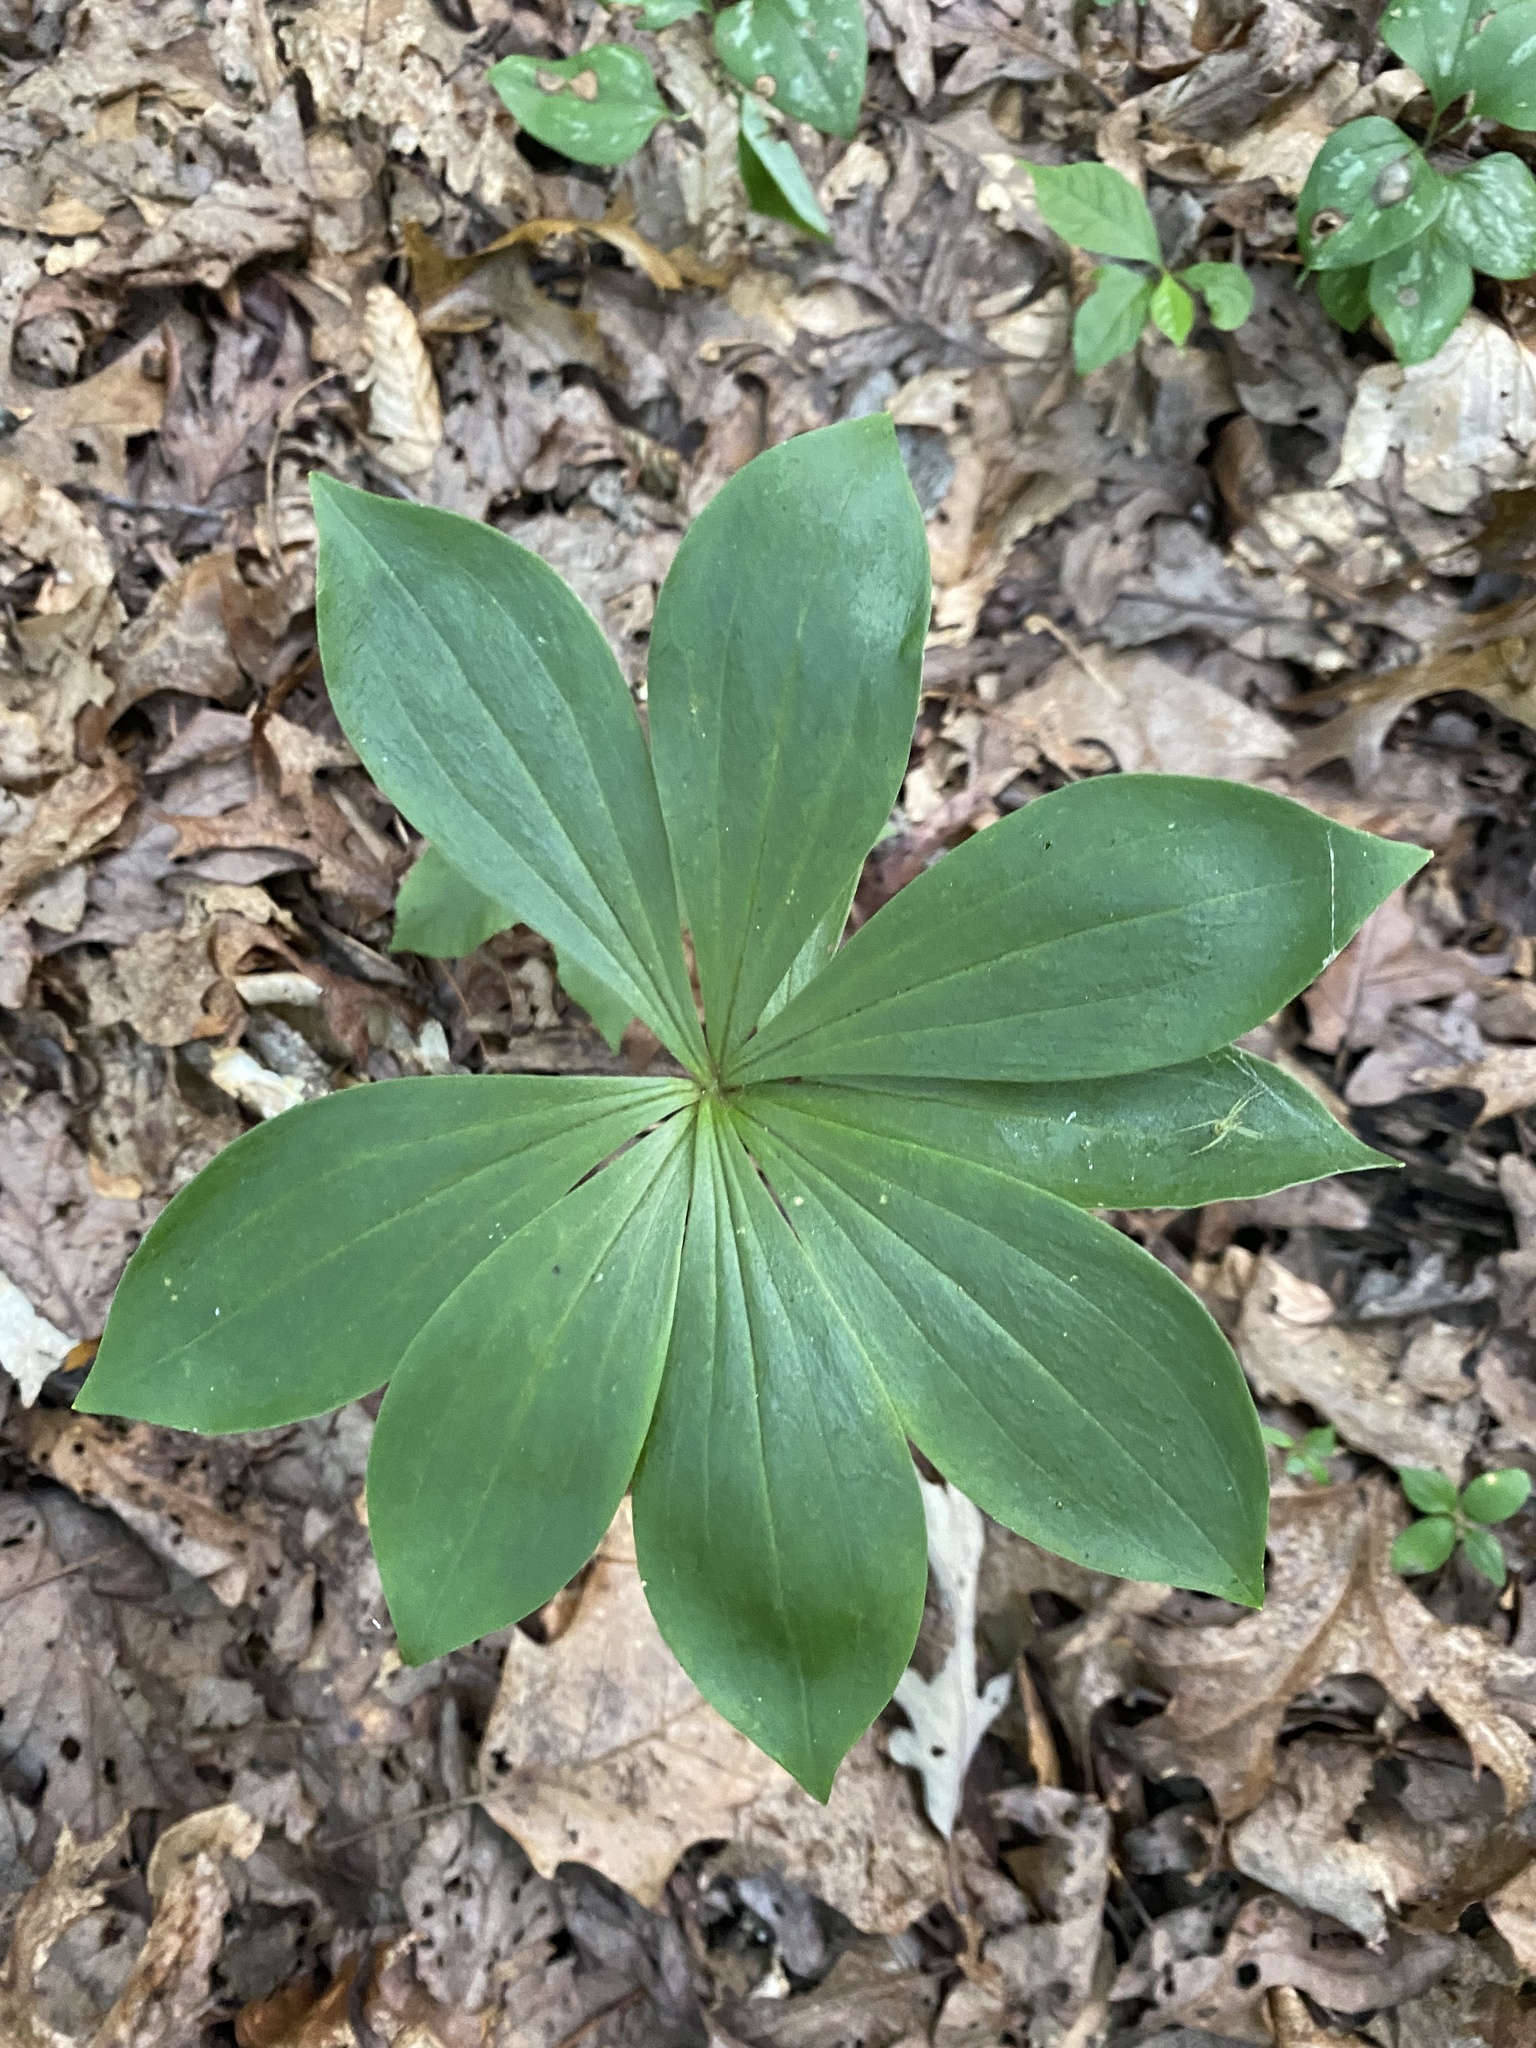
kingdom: Plantae
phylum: Tracheophyta
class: Liliopsida
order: Liliales
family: Liliaceae
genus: Medeola
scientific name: Medeola virginiana
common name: Indian cucumber-root
